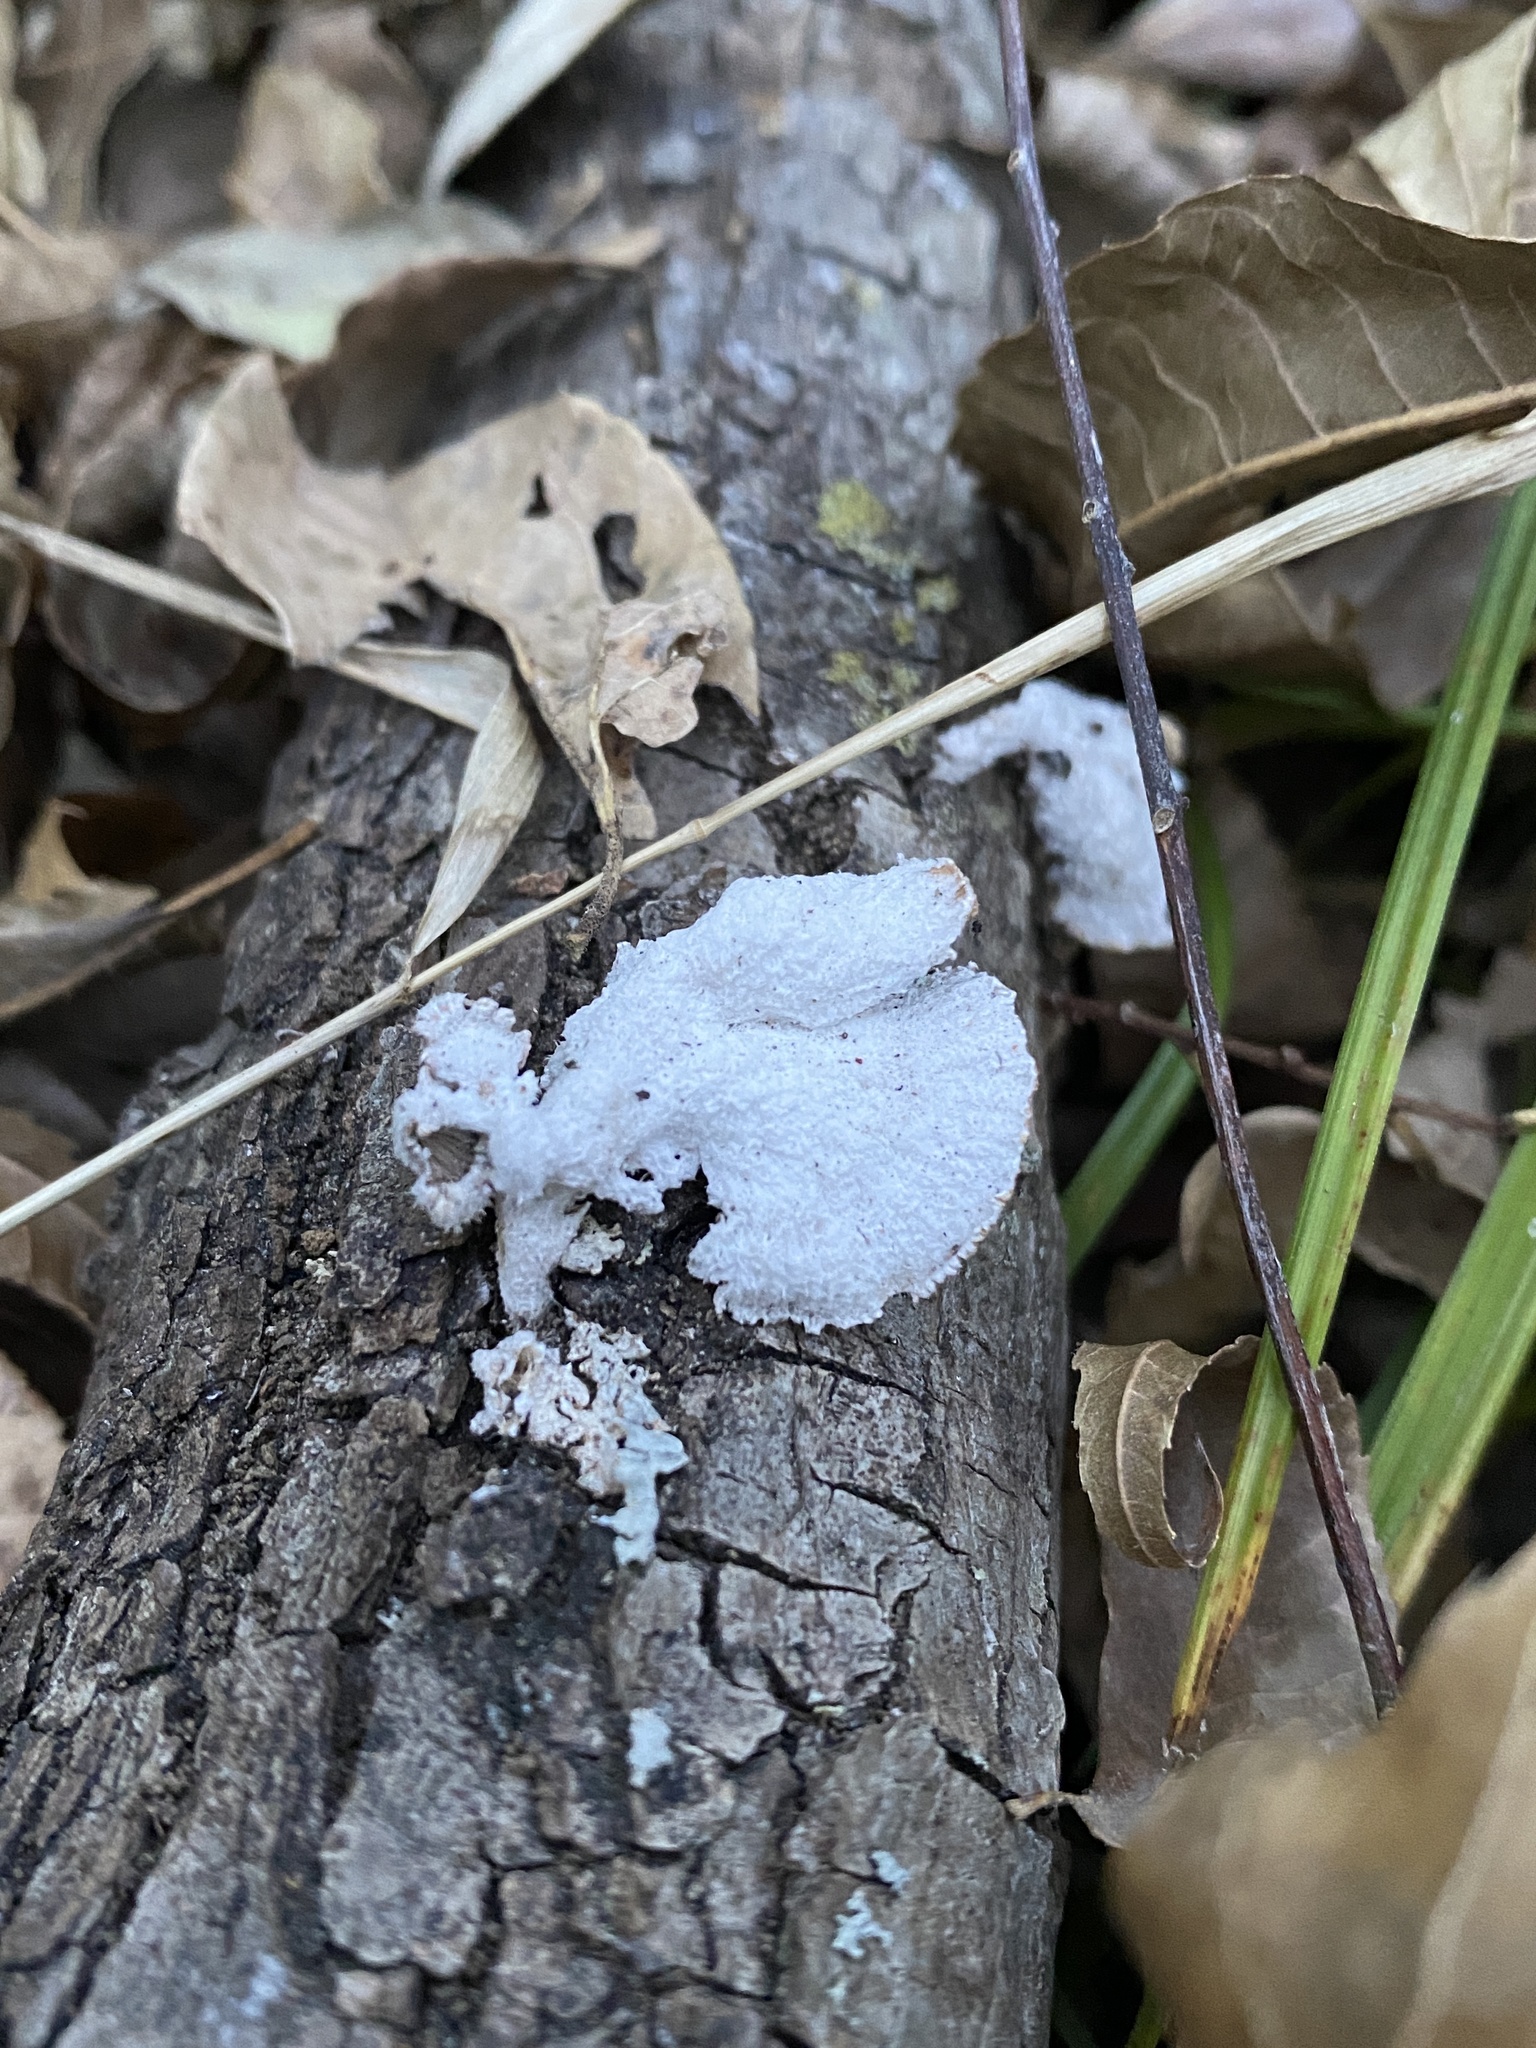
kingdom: Fungi
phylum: Basidiomycota
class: Agaricomycetes
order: Agaricales
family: Schizophyllaceae
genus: Schizophyllum
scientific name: Schizophyllum commune
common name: Common porecrust
